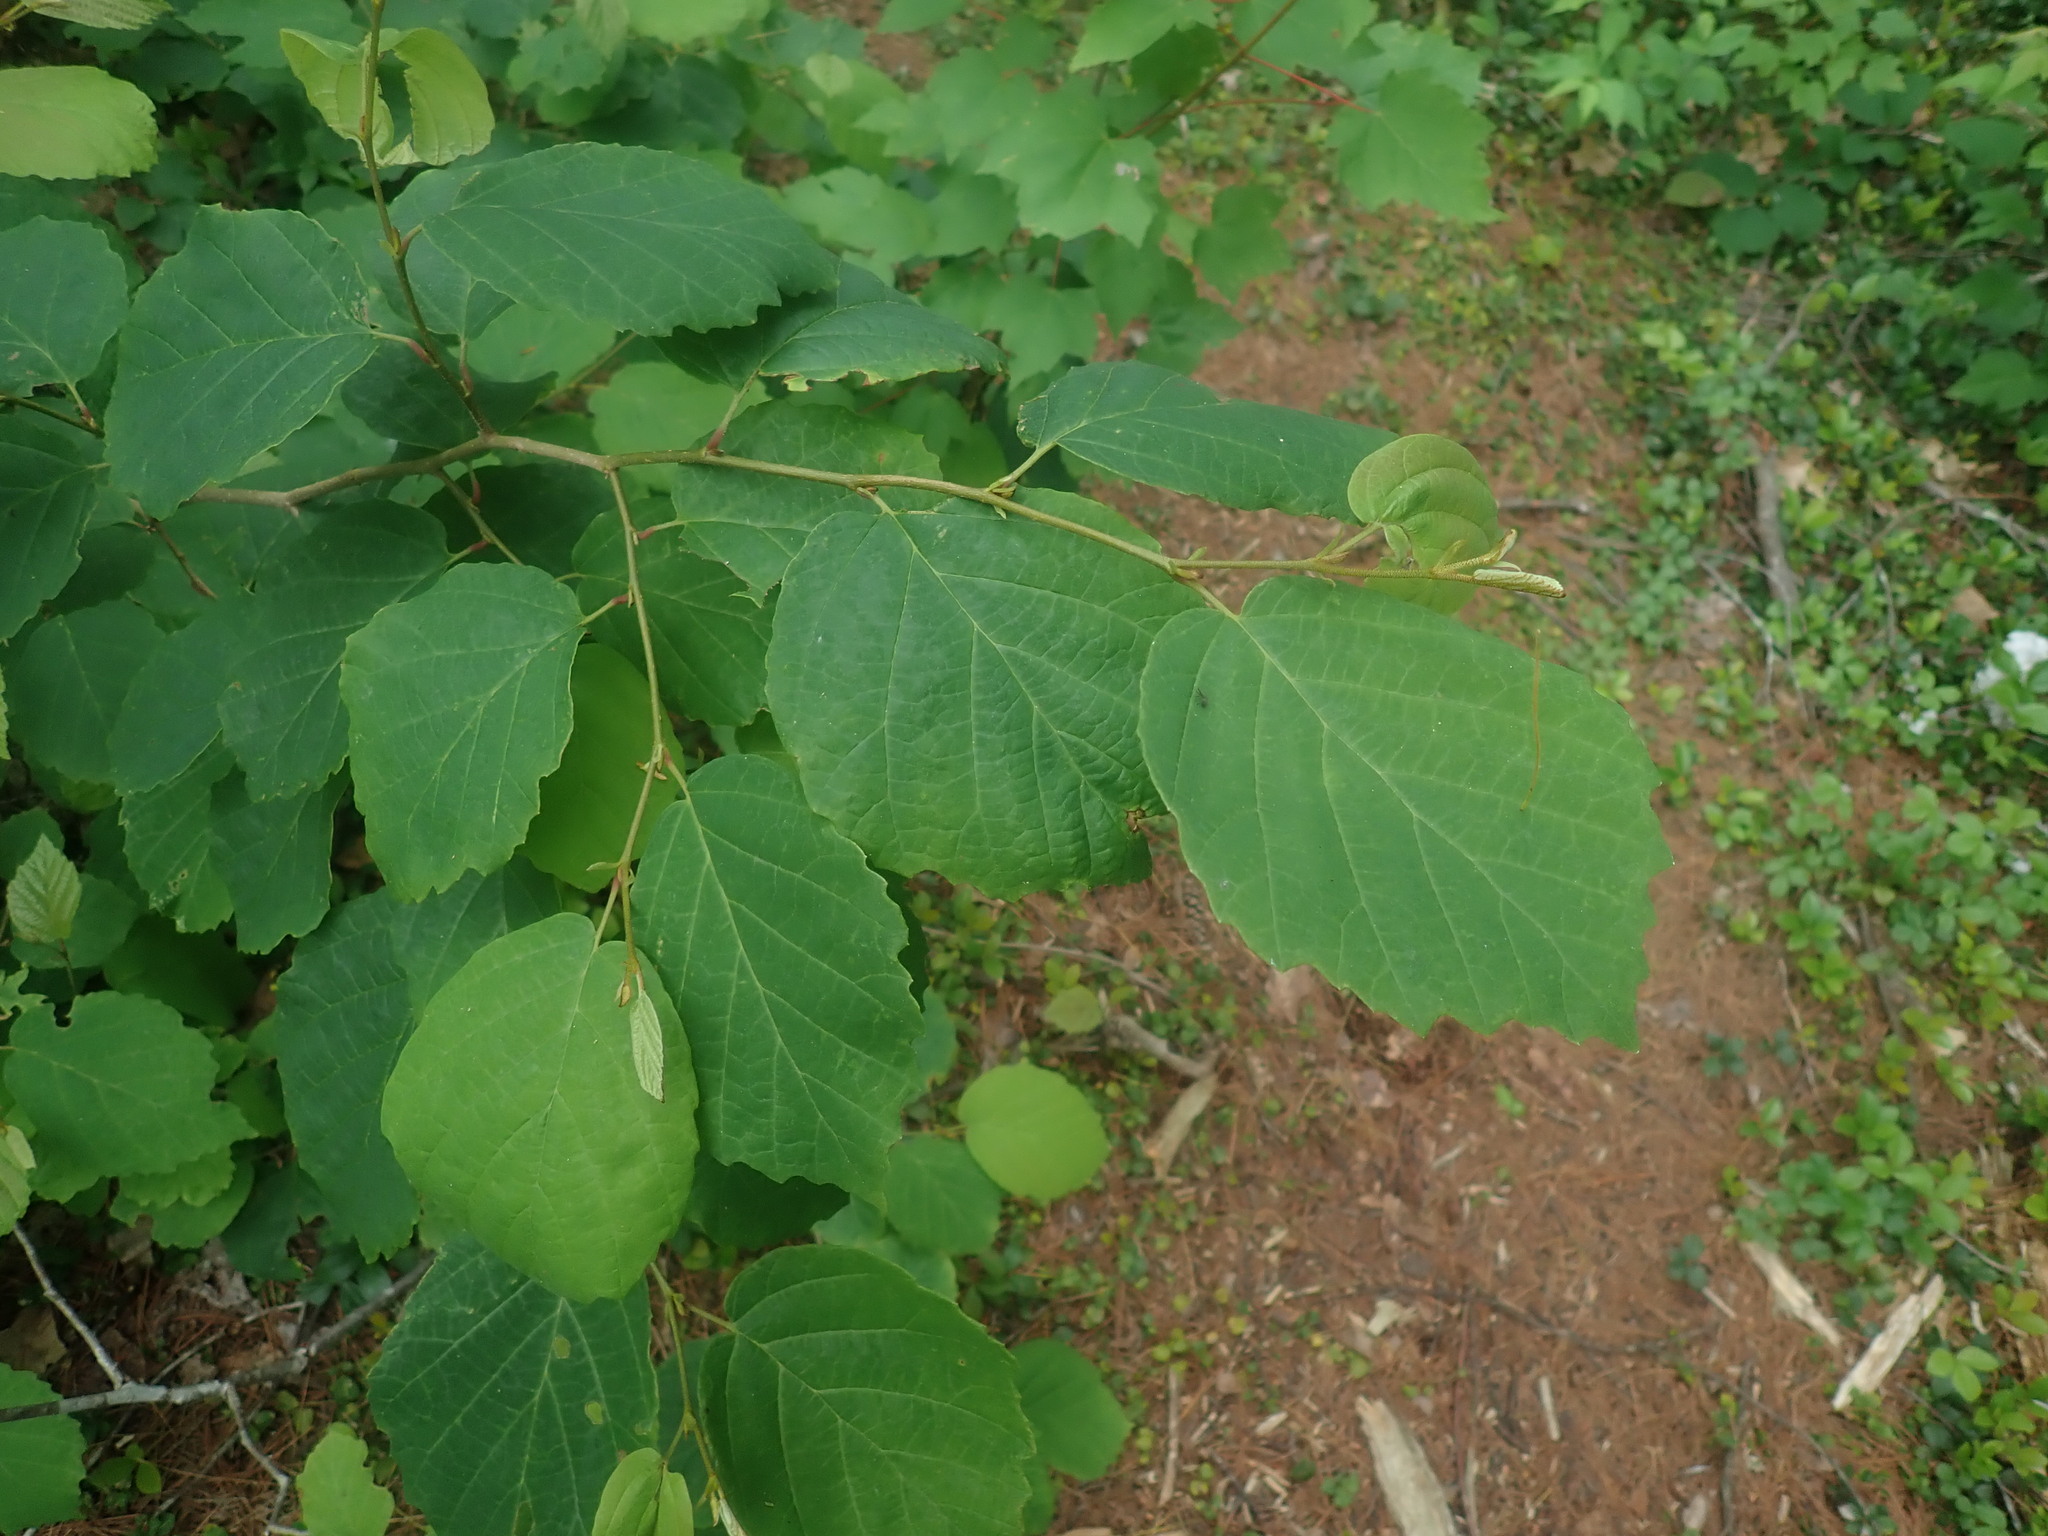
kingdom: Plantae
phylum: Tracheophyta
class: Magnoliopsida
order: Saxifragales
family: Hamamelidaceae
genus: Hamamelis
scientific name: Hamamelis virginiana
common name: Witch-hazel
